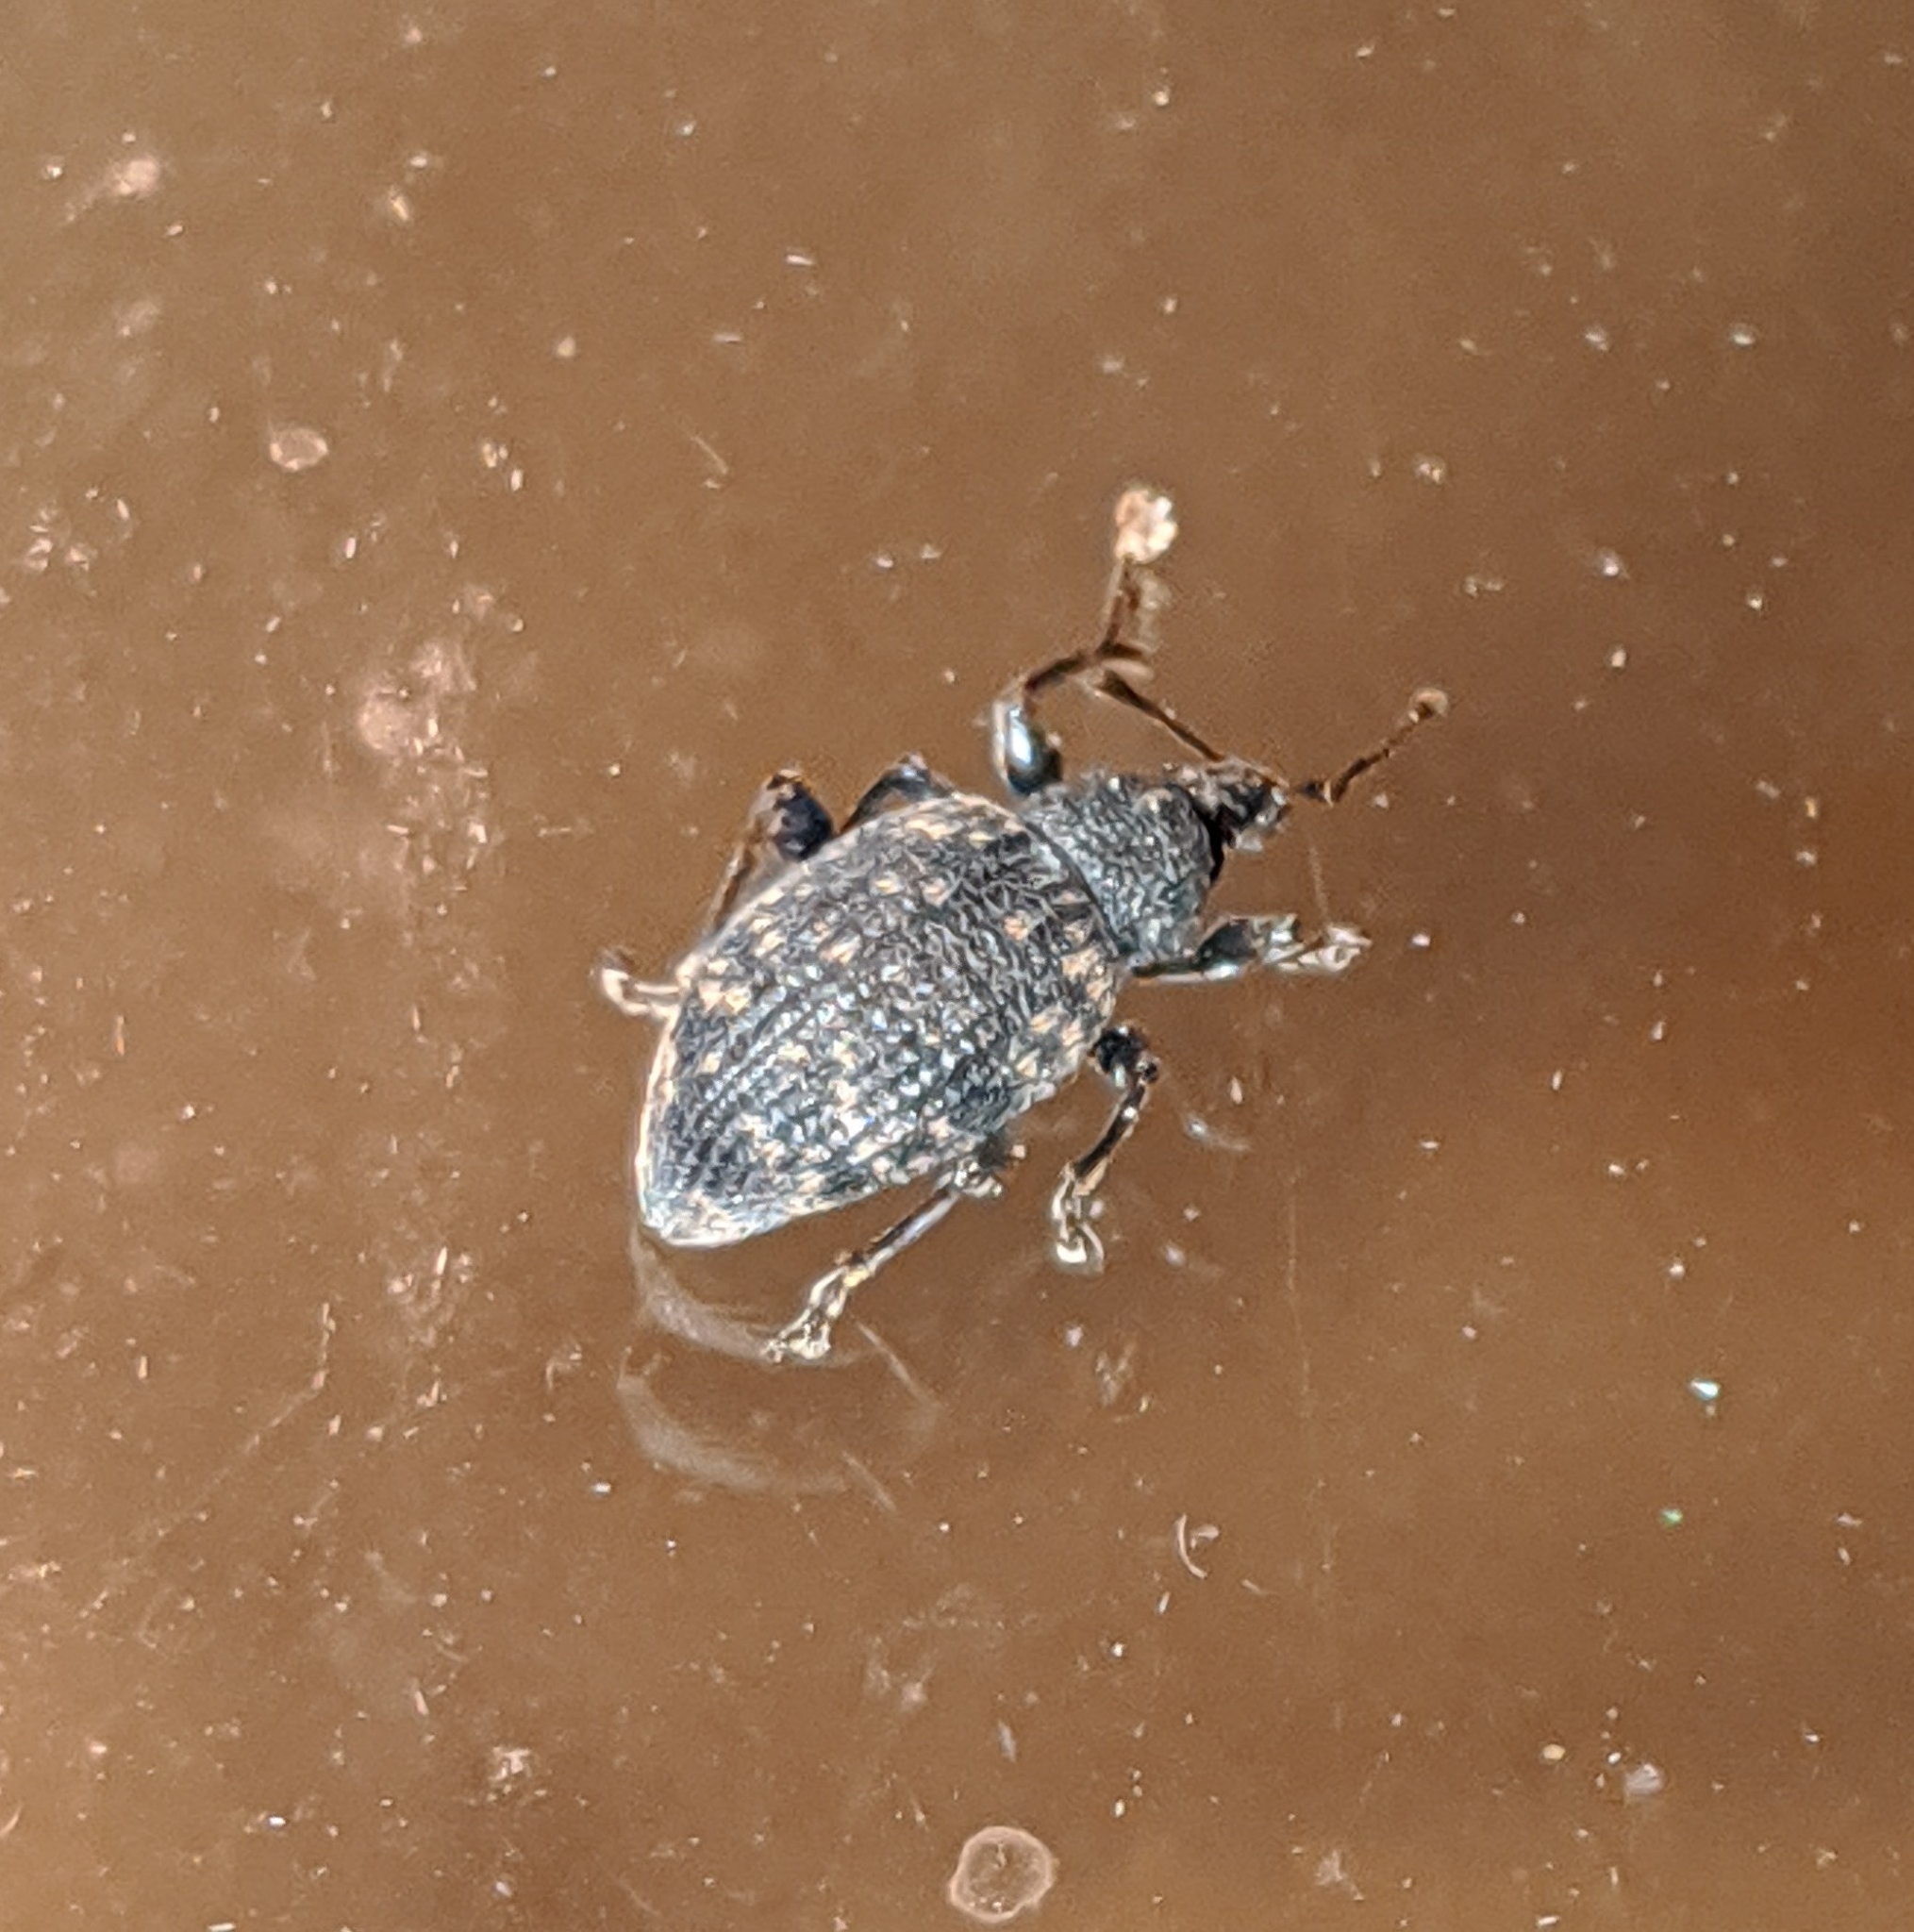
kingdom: Animalia
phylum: Arthropoda
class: Insecta
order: Coleoptera
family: Curculionidae
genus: Otiorhynchus
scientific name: Otiorhynchus sulcatus
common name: Black vine weevil
